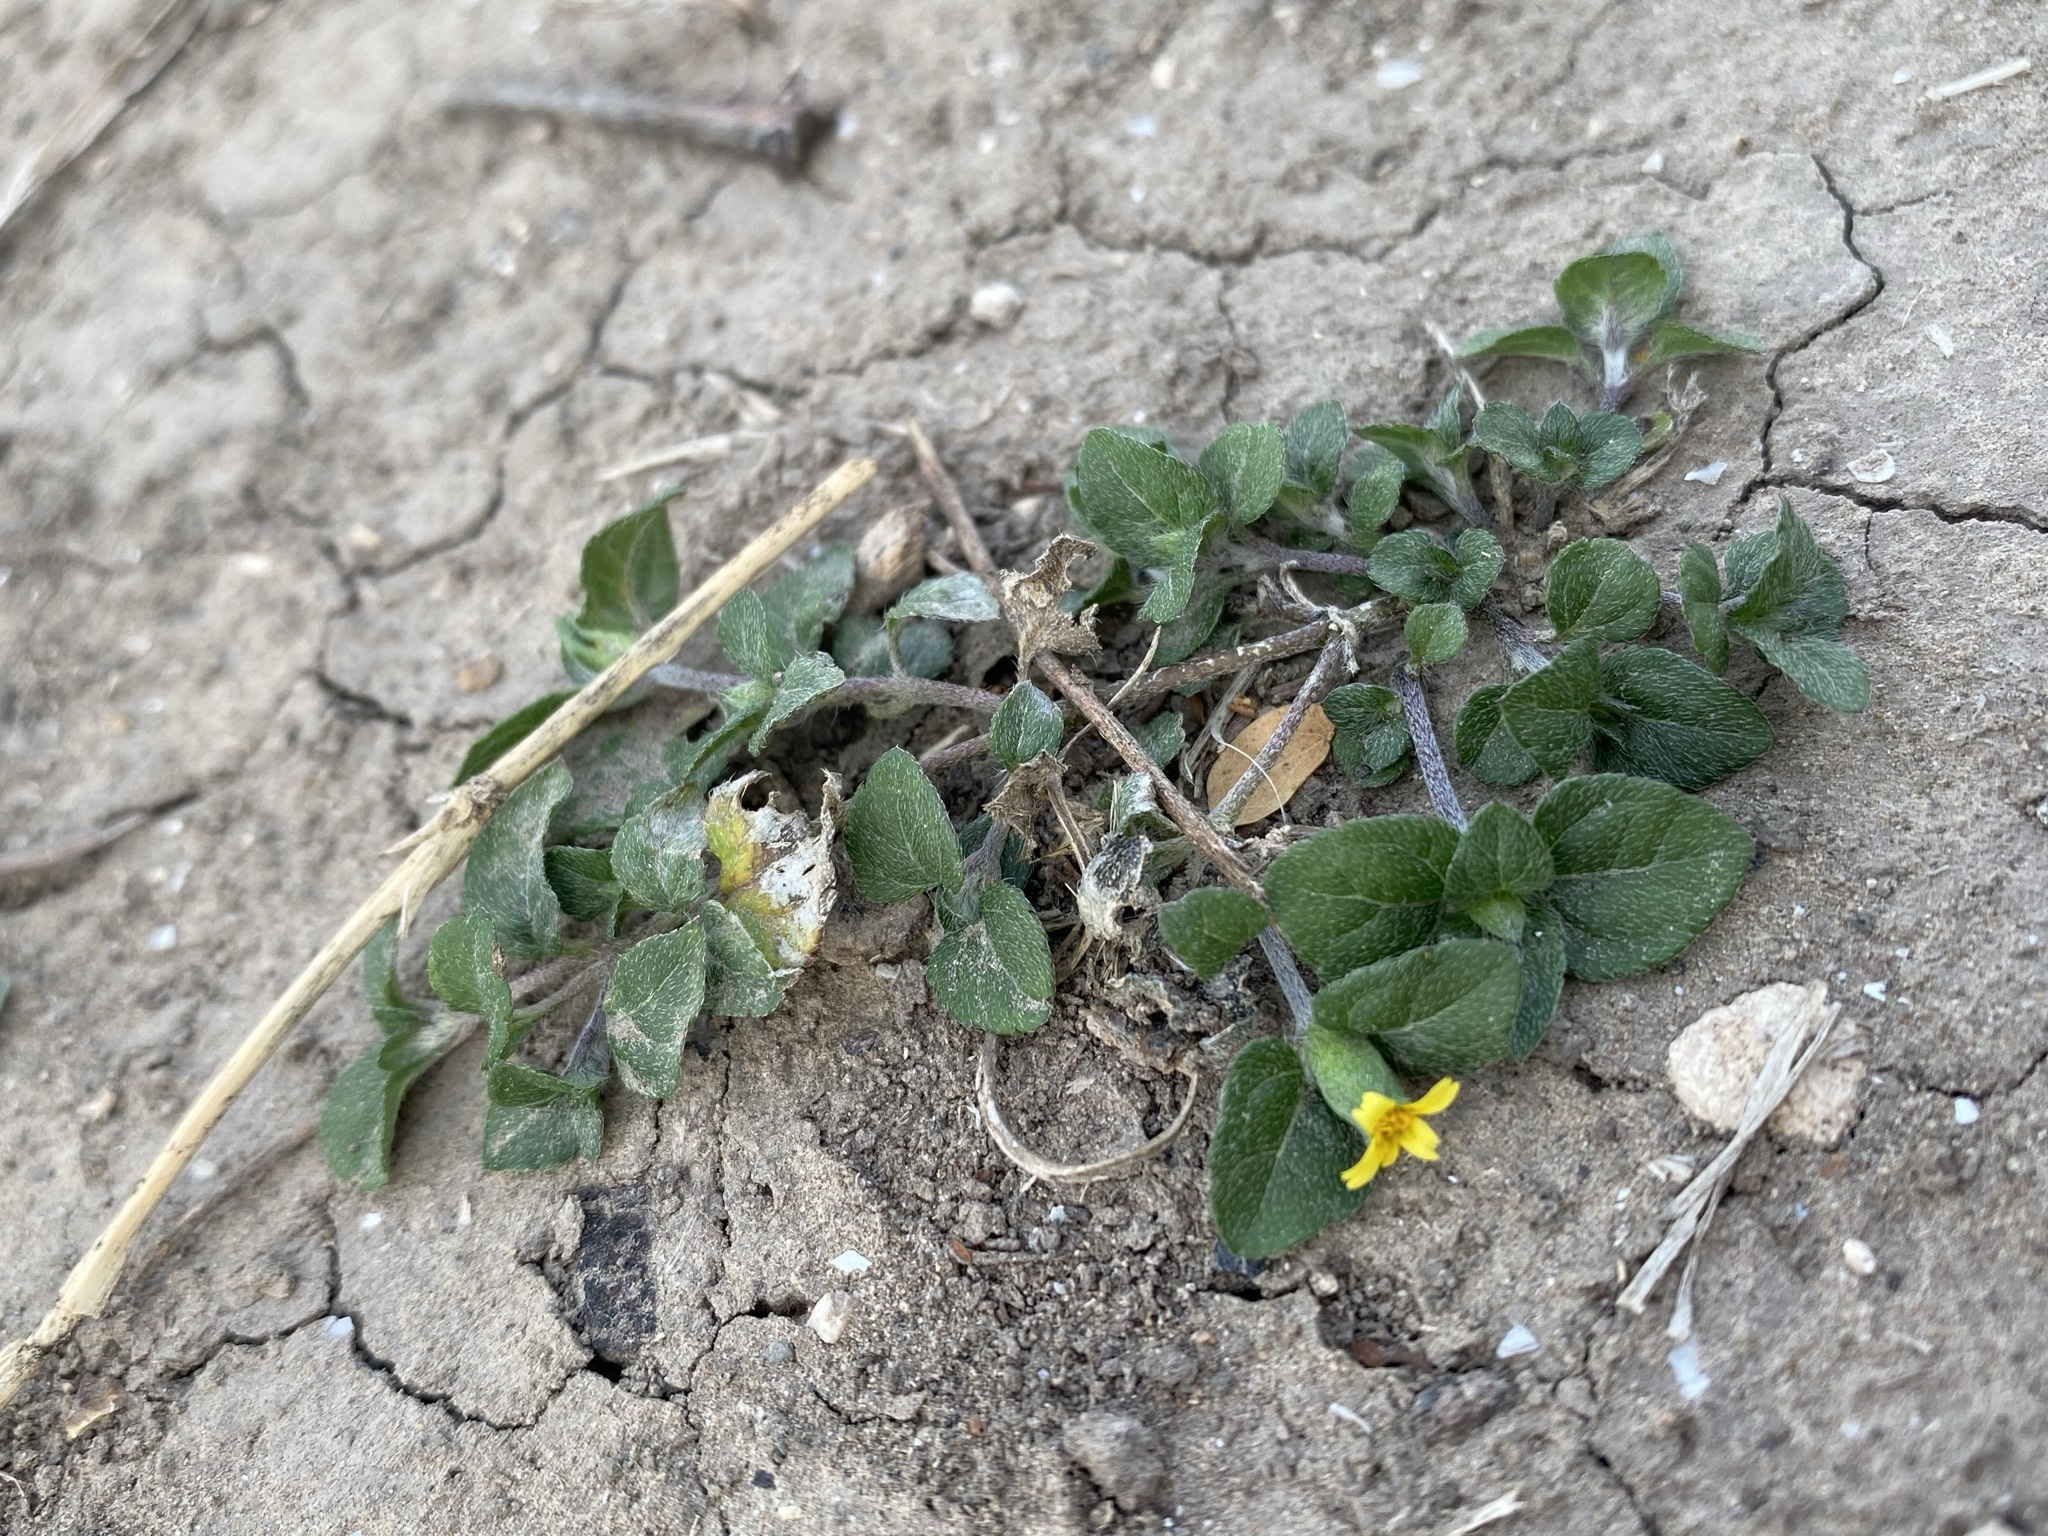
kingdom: Plantae
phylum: Tracheophyta
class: Magnoliopsida
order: Asterales
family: Asteraceae
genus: Calyptocarpus
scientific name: Calyptocarpus vialis
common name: Straggler daisy
